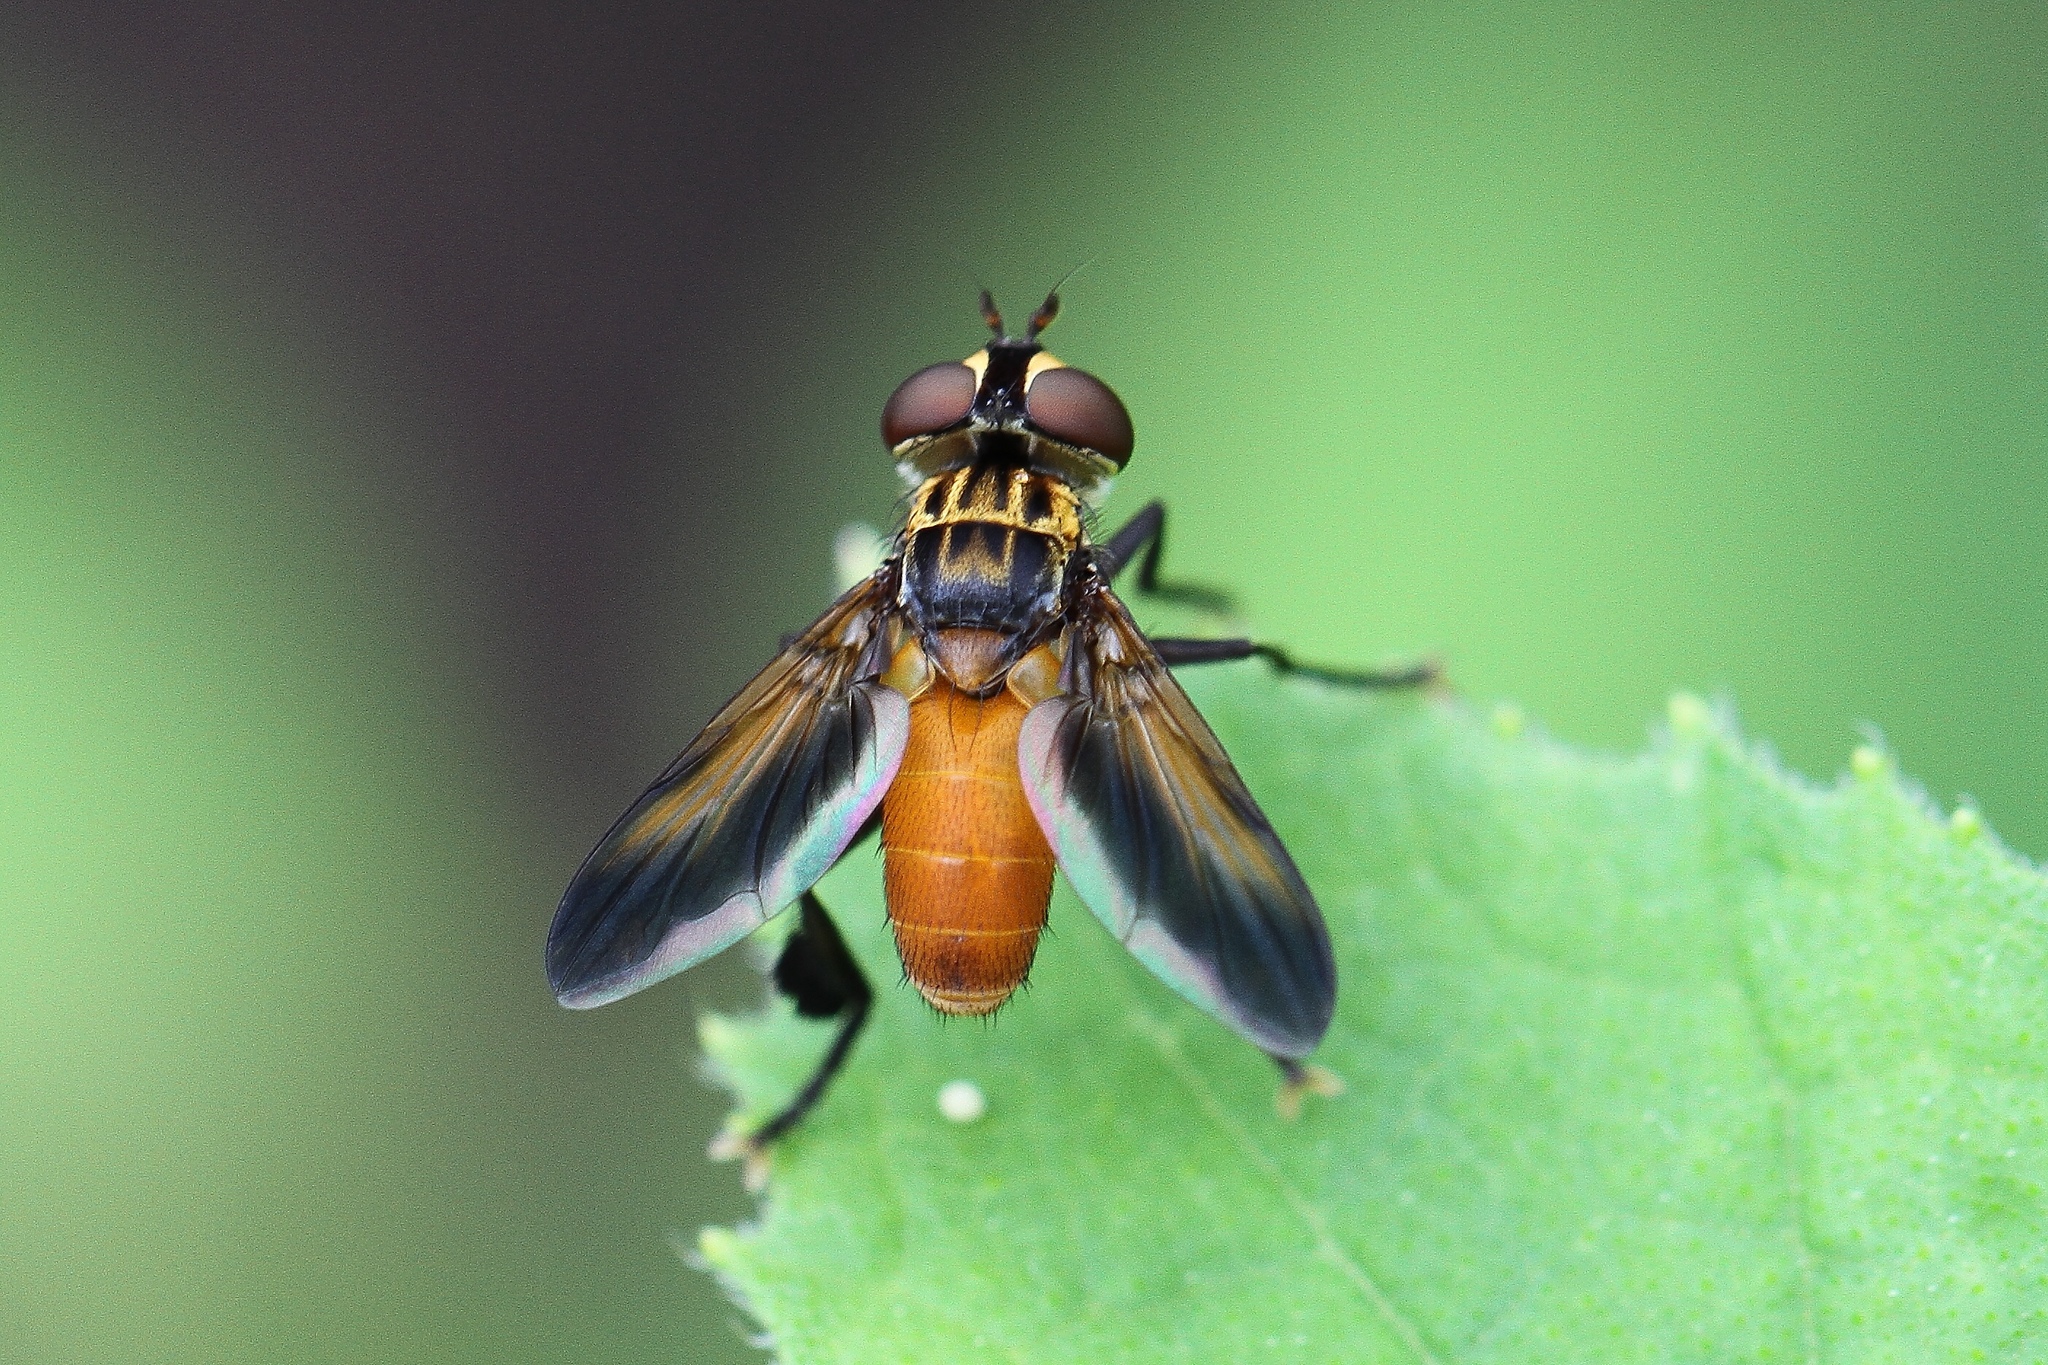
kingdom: Animalia
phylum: Arthropoda
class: Insecta
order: Diptera
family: Tachinidae
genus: Trichopoda
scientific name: Trichopoda pennipes
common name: Tachinid fly
